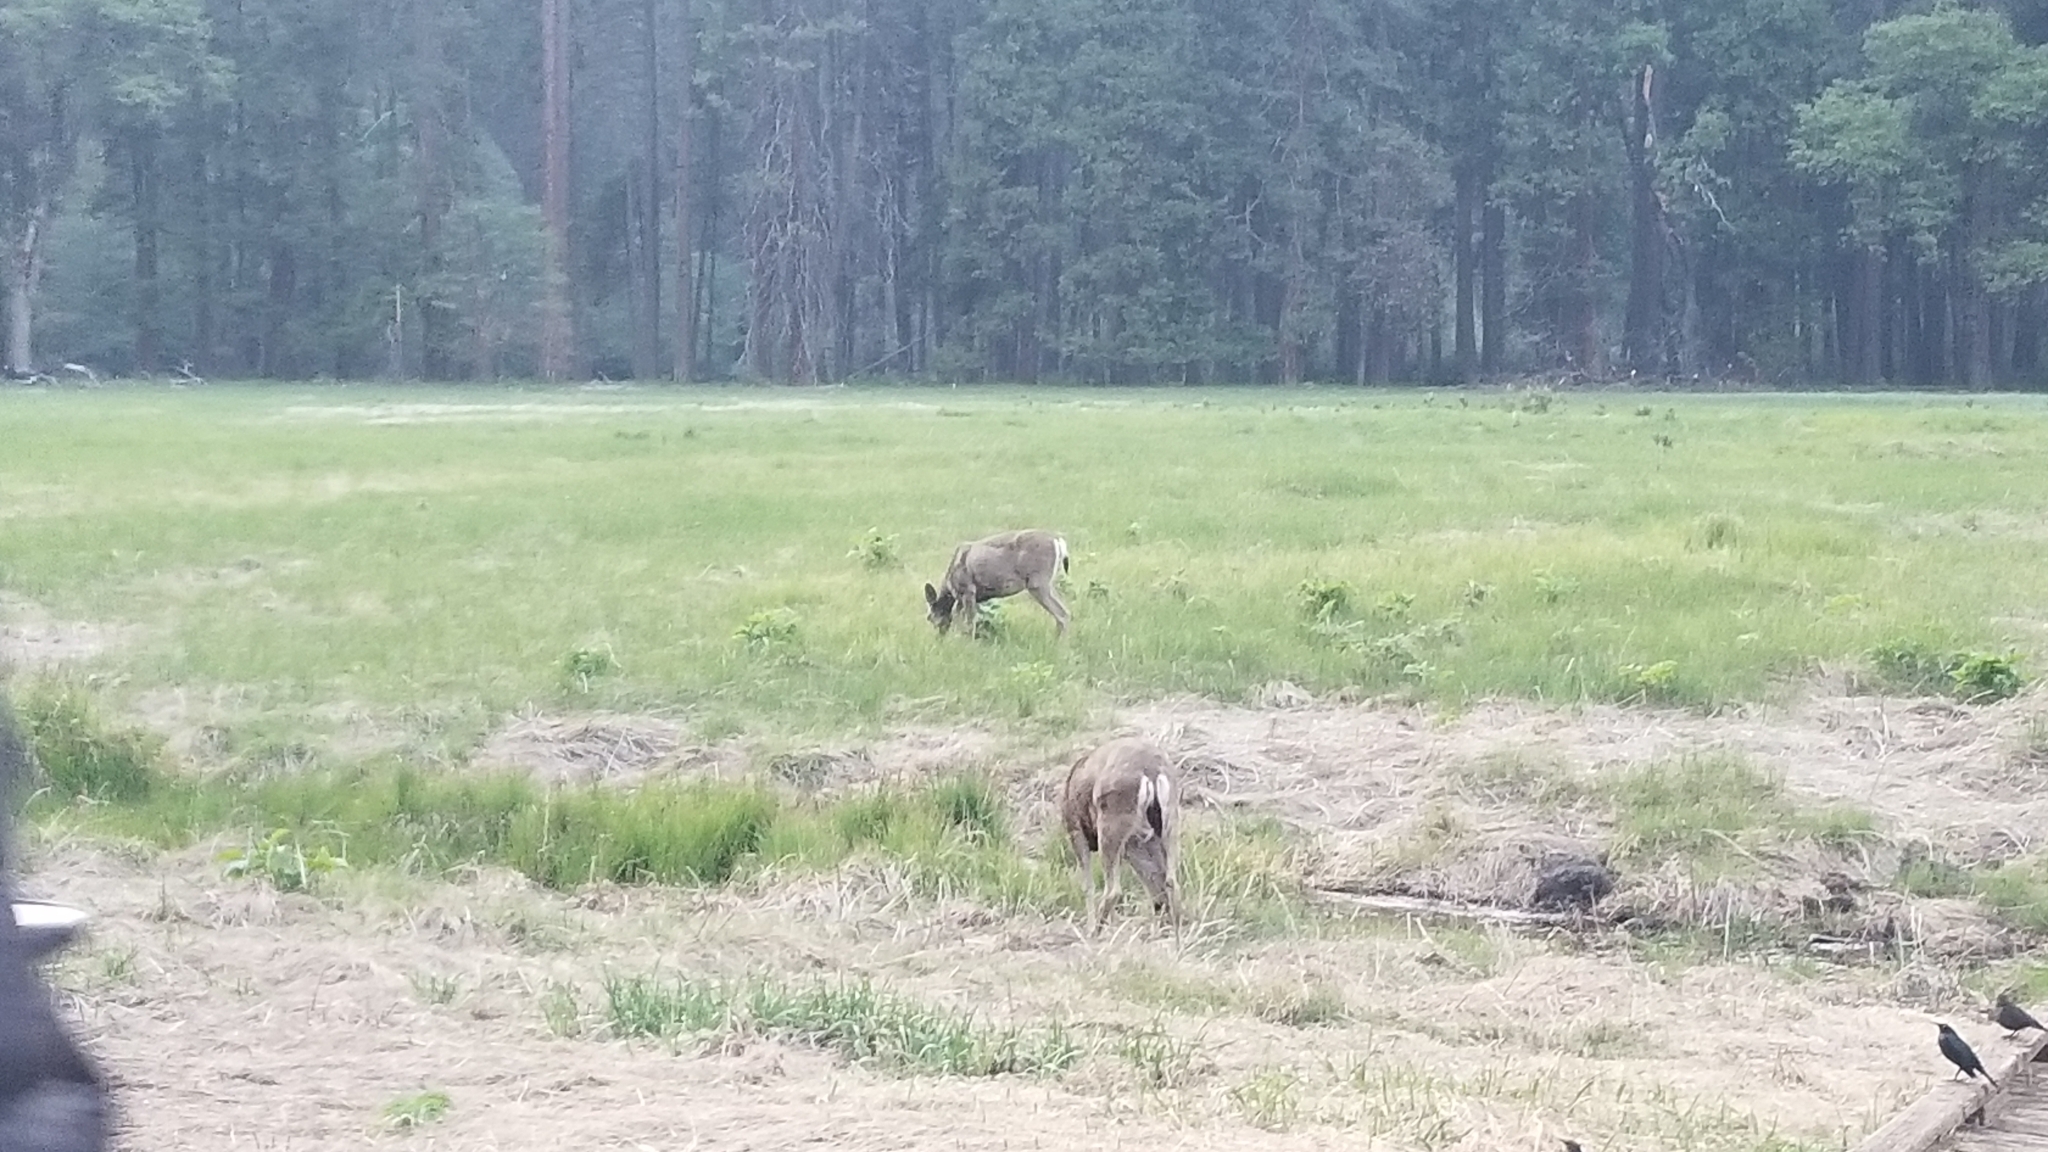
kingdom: Animalia
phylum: Chordata
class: Mammalia
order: Artiodactyla
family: Cervidae
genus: Odocoileus
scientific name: Odocoileus hemionus
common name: Mule deer
